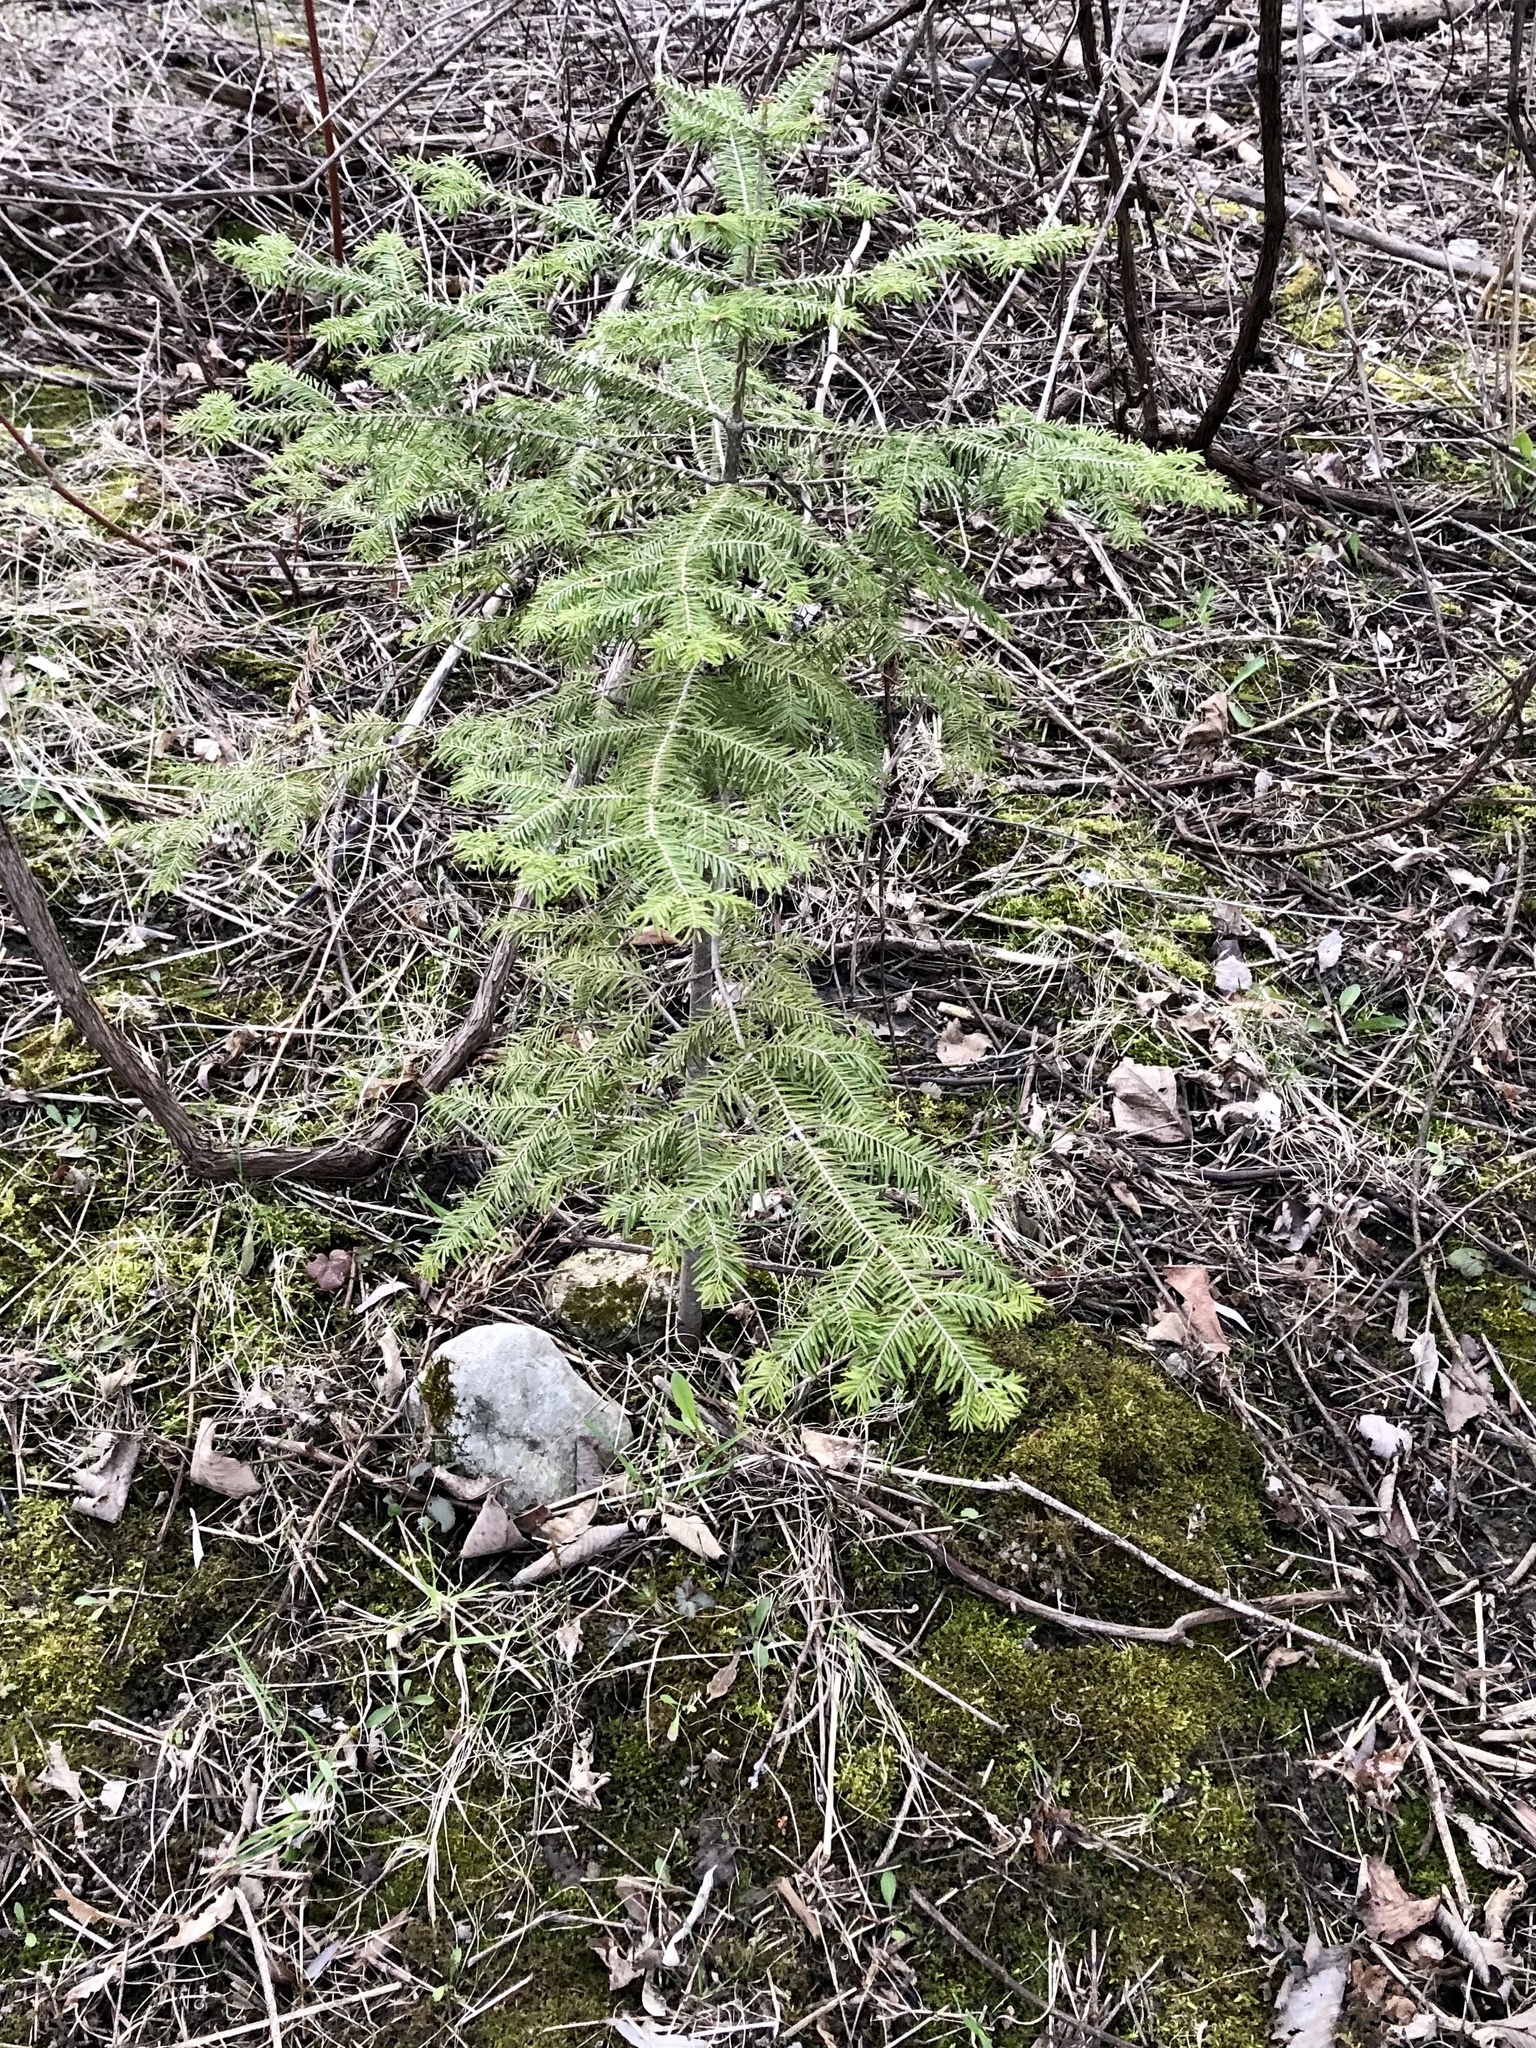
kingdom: Plantae
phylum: Tracheophyta
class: Pinopsida
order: Pinales
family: Pinaceae
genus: Abies
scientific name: Abies balsamea
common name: Balsam fir
